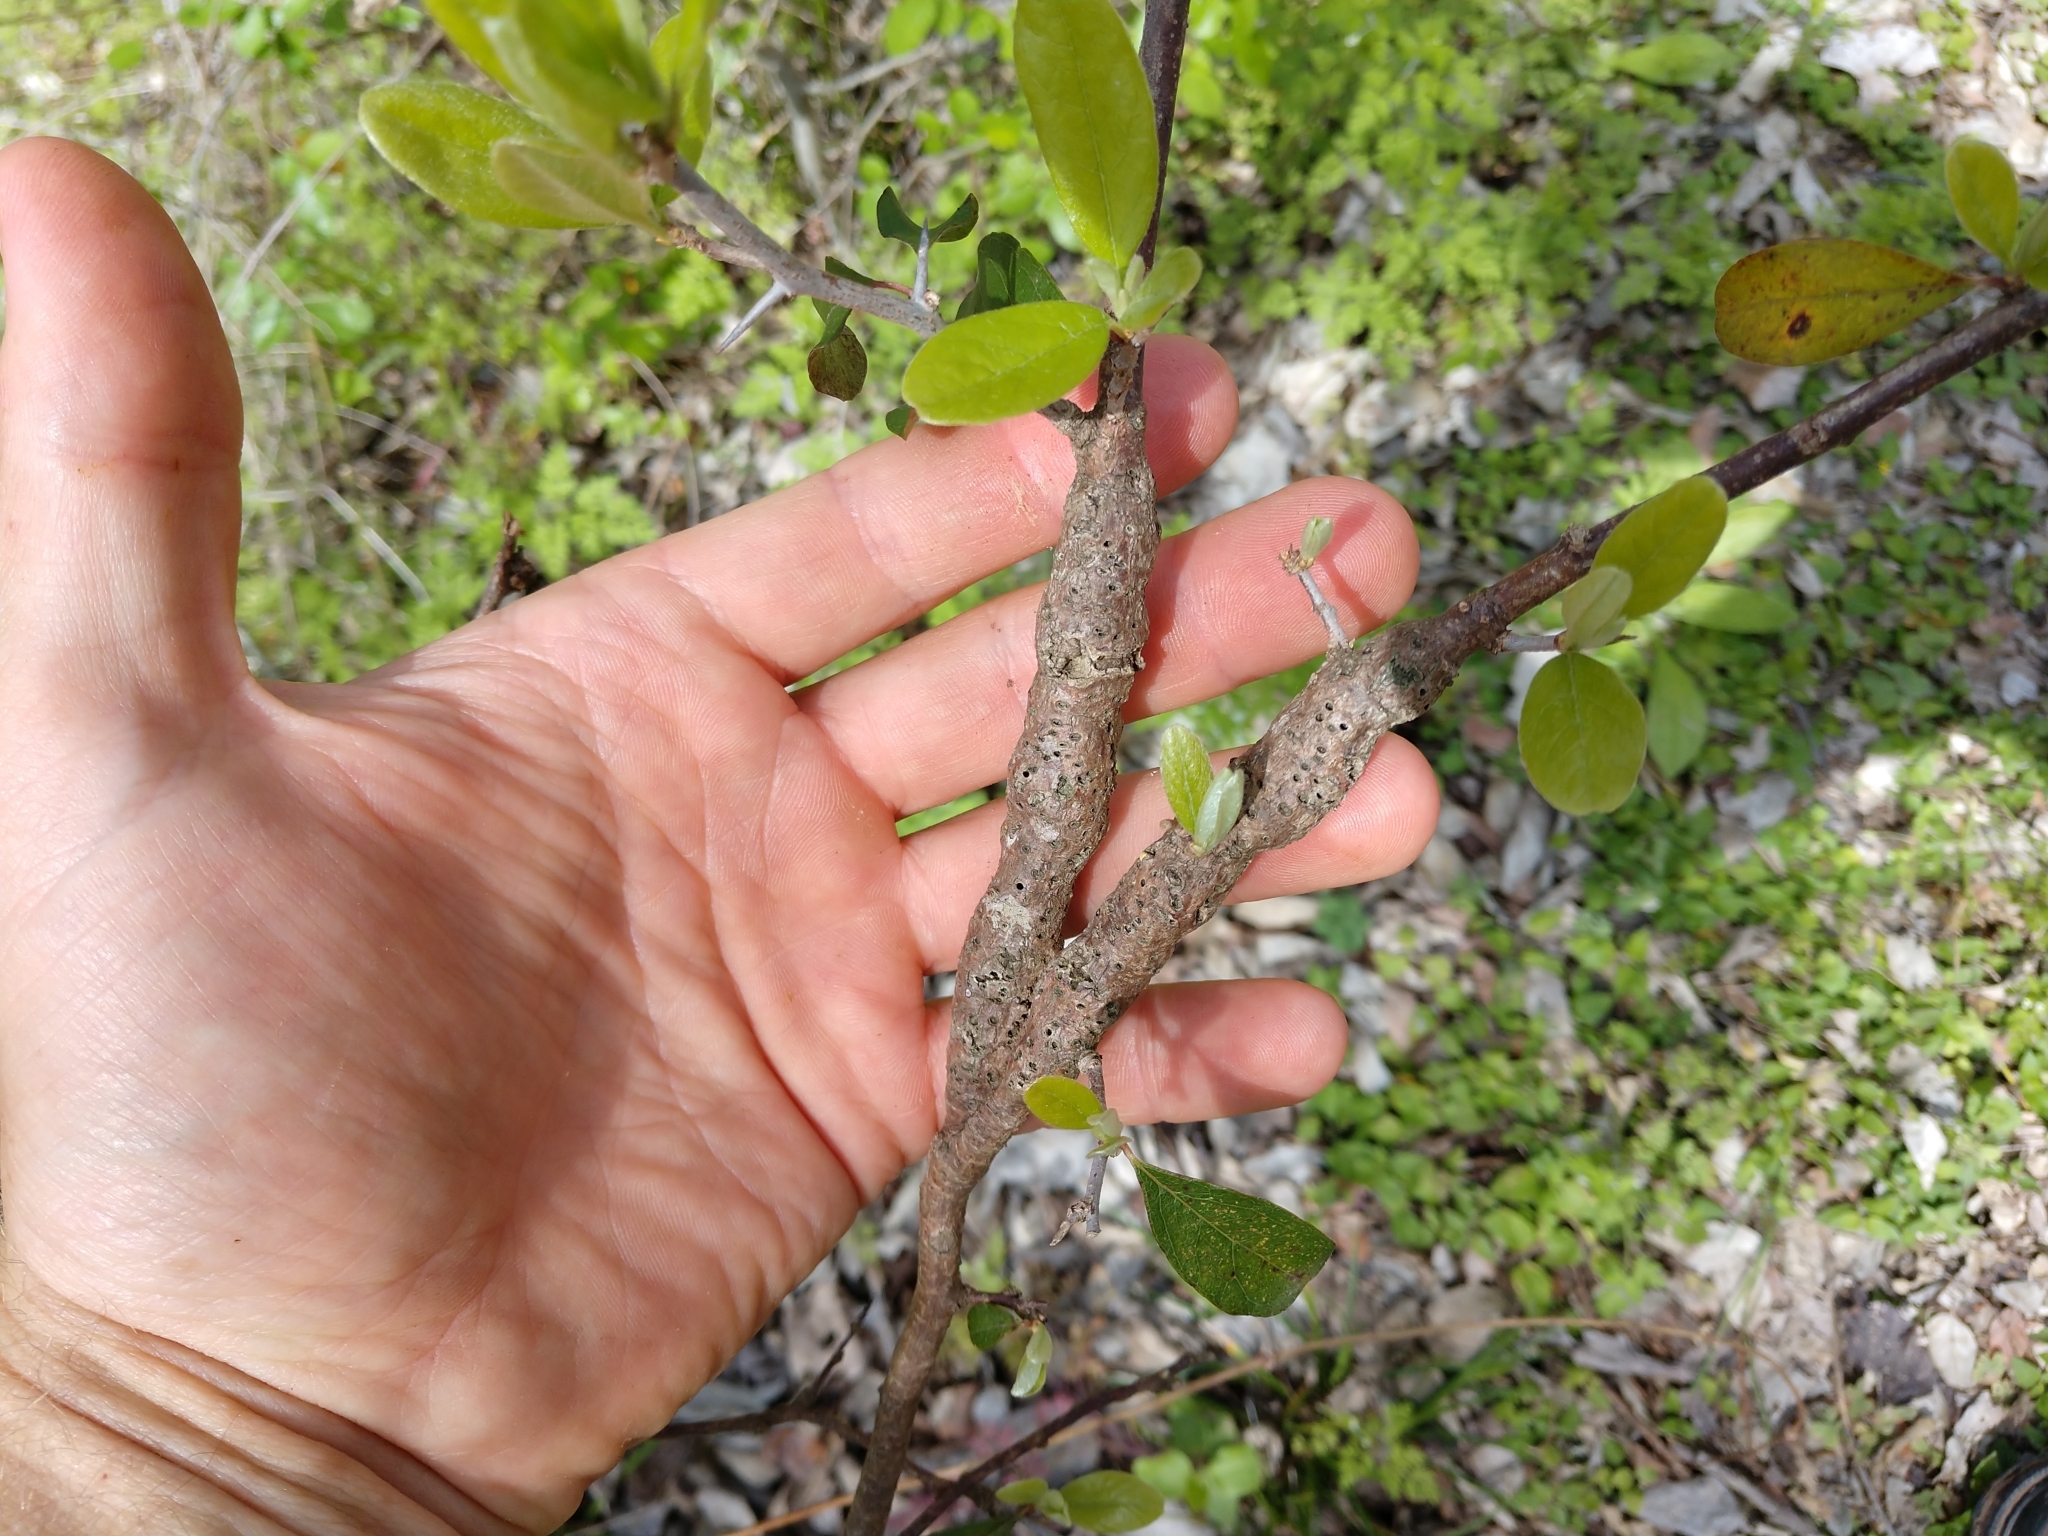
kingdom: Animalia
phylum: Arthropoda
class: Insecta
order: Diptera
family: Cecidomyiidae
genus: Bruggmanniella
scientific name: Bruggmanniella bumeliae
